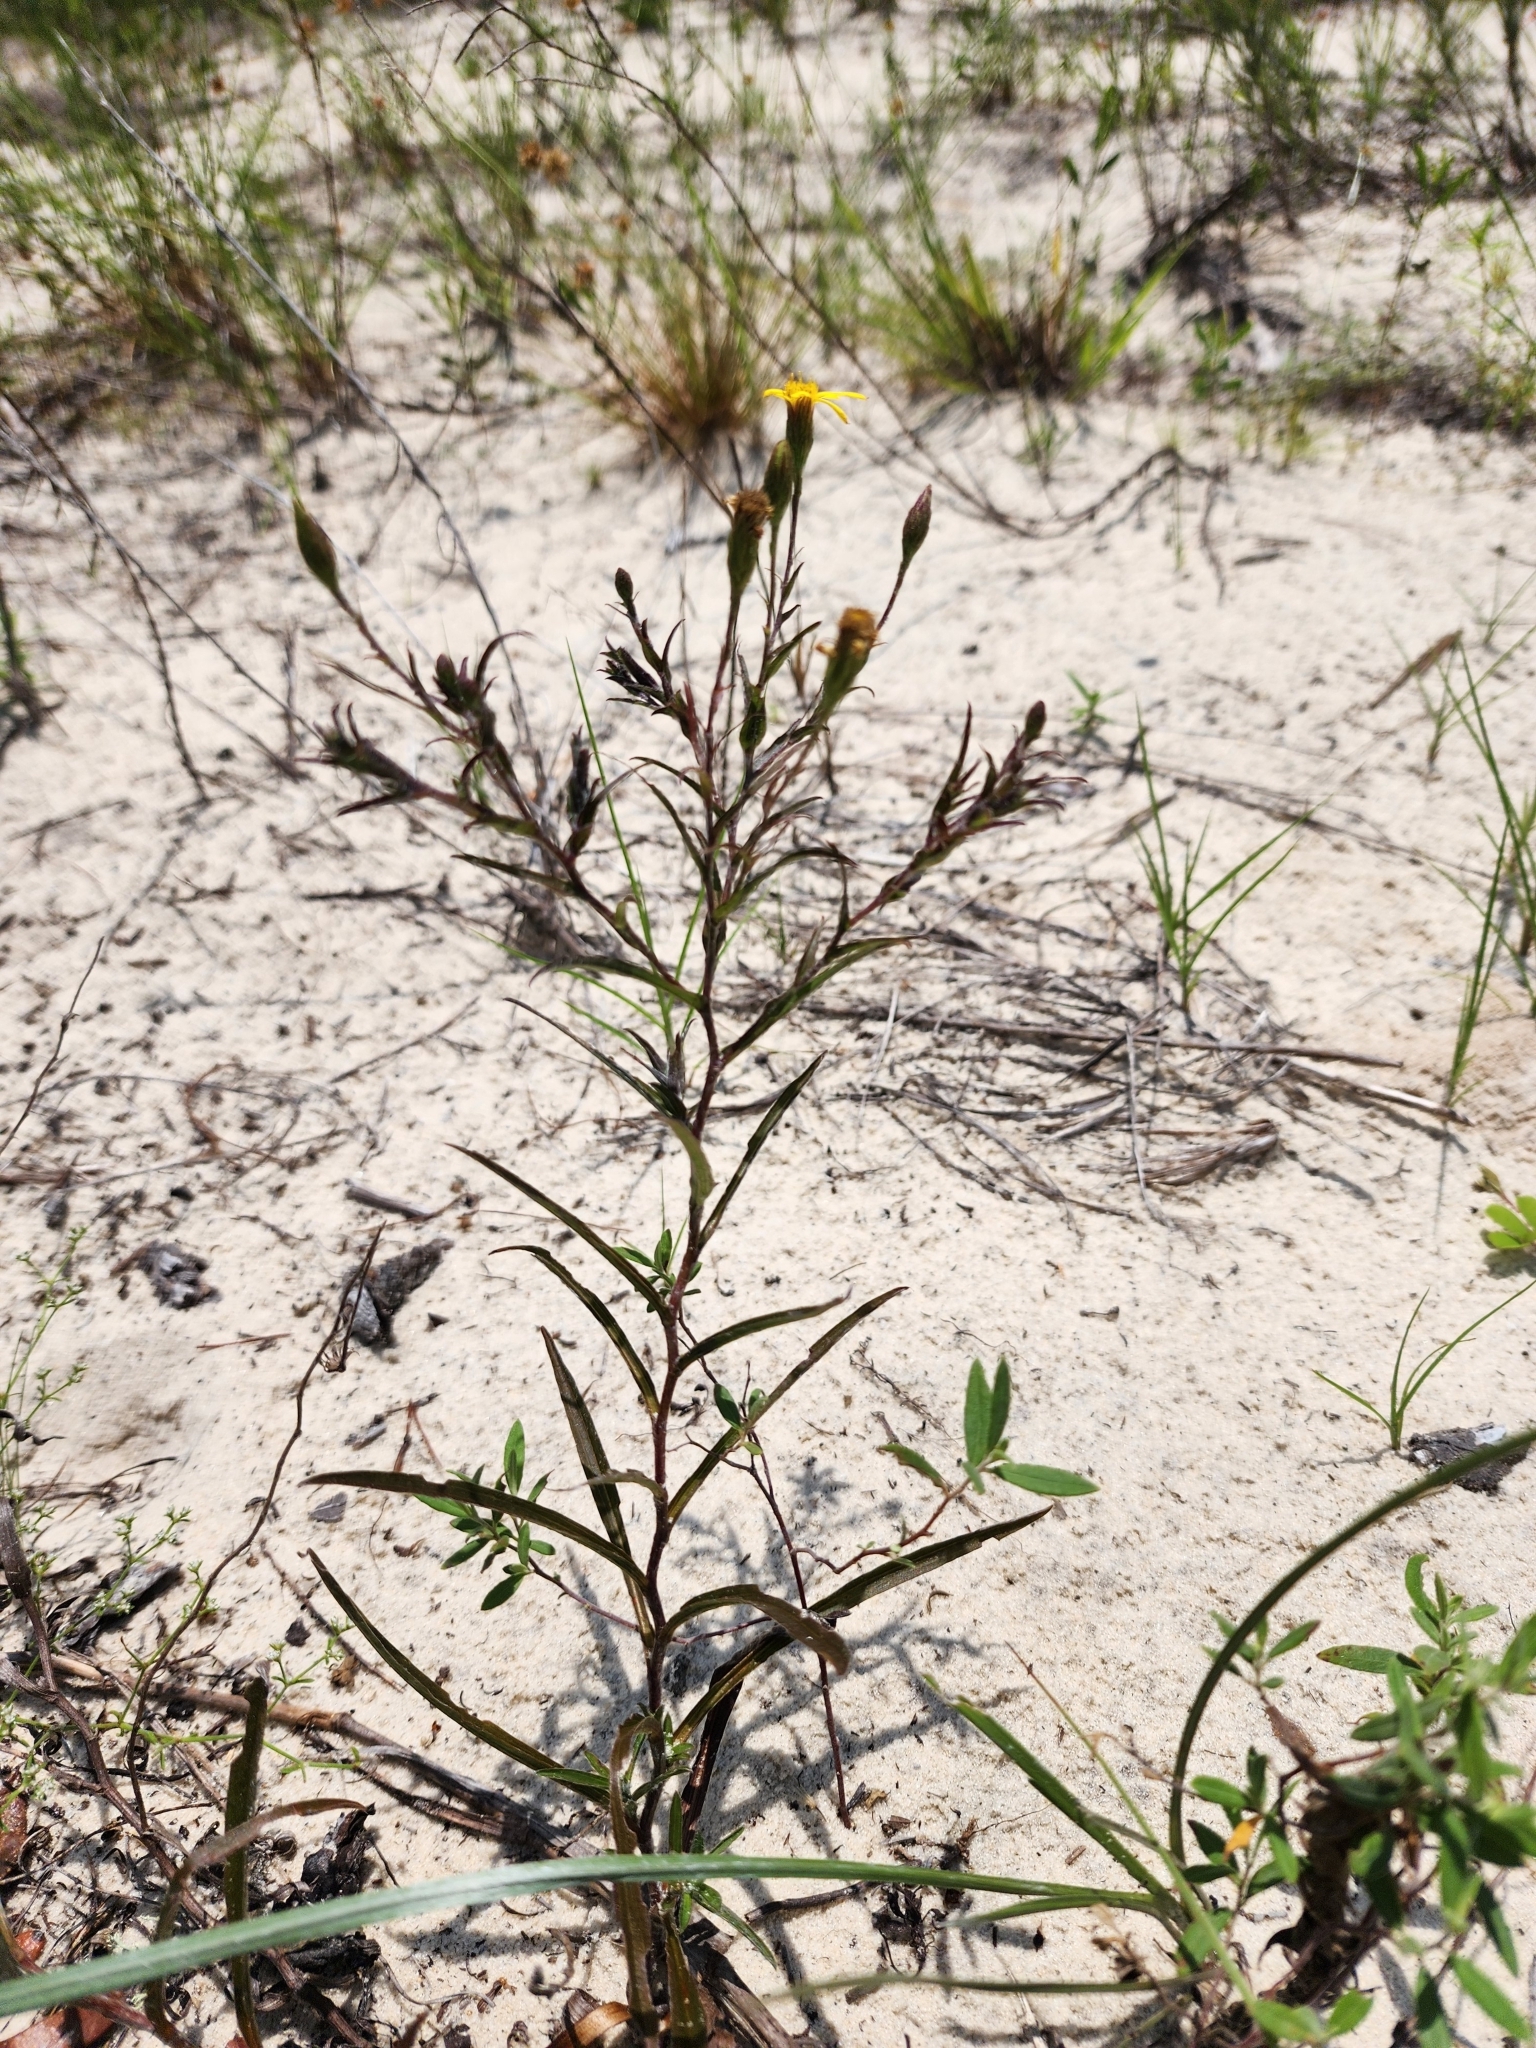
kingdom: Plantae
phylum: Tracheophyta
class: Magnoliopsida
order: Asterales
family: Asteraceae
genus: Pityopsis
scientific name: Pityopsis flexuosa
